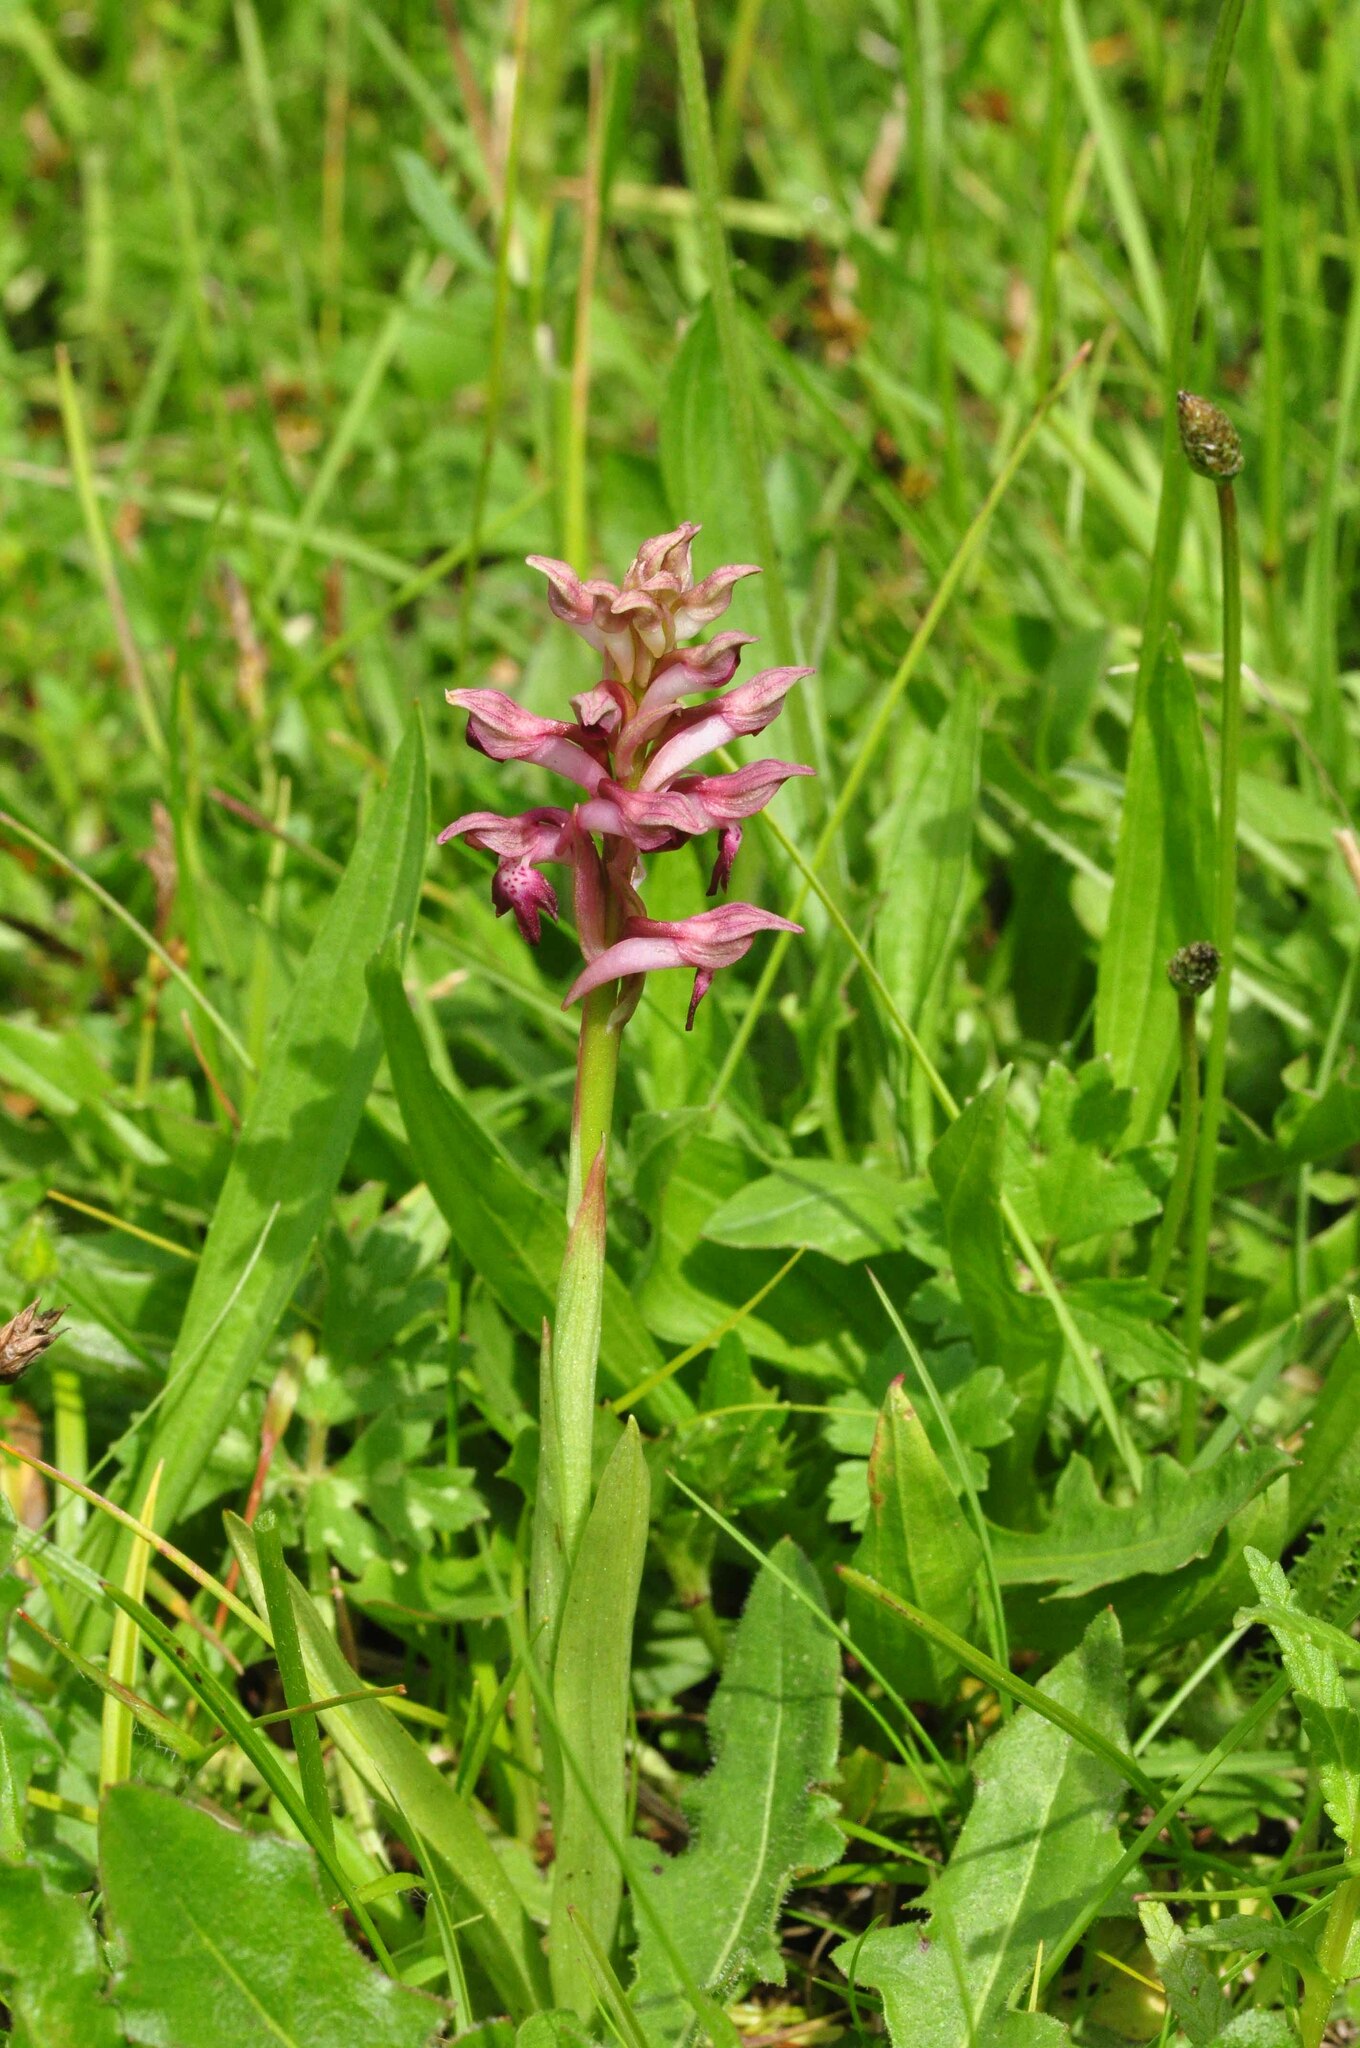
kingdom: Plantae
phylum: Tracheophyta
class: Liliopsida
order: Asparagales
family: Orchidaceae
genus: Anacamptis
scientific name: Anacamptis coriophora
